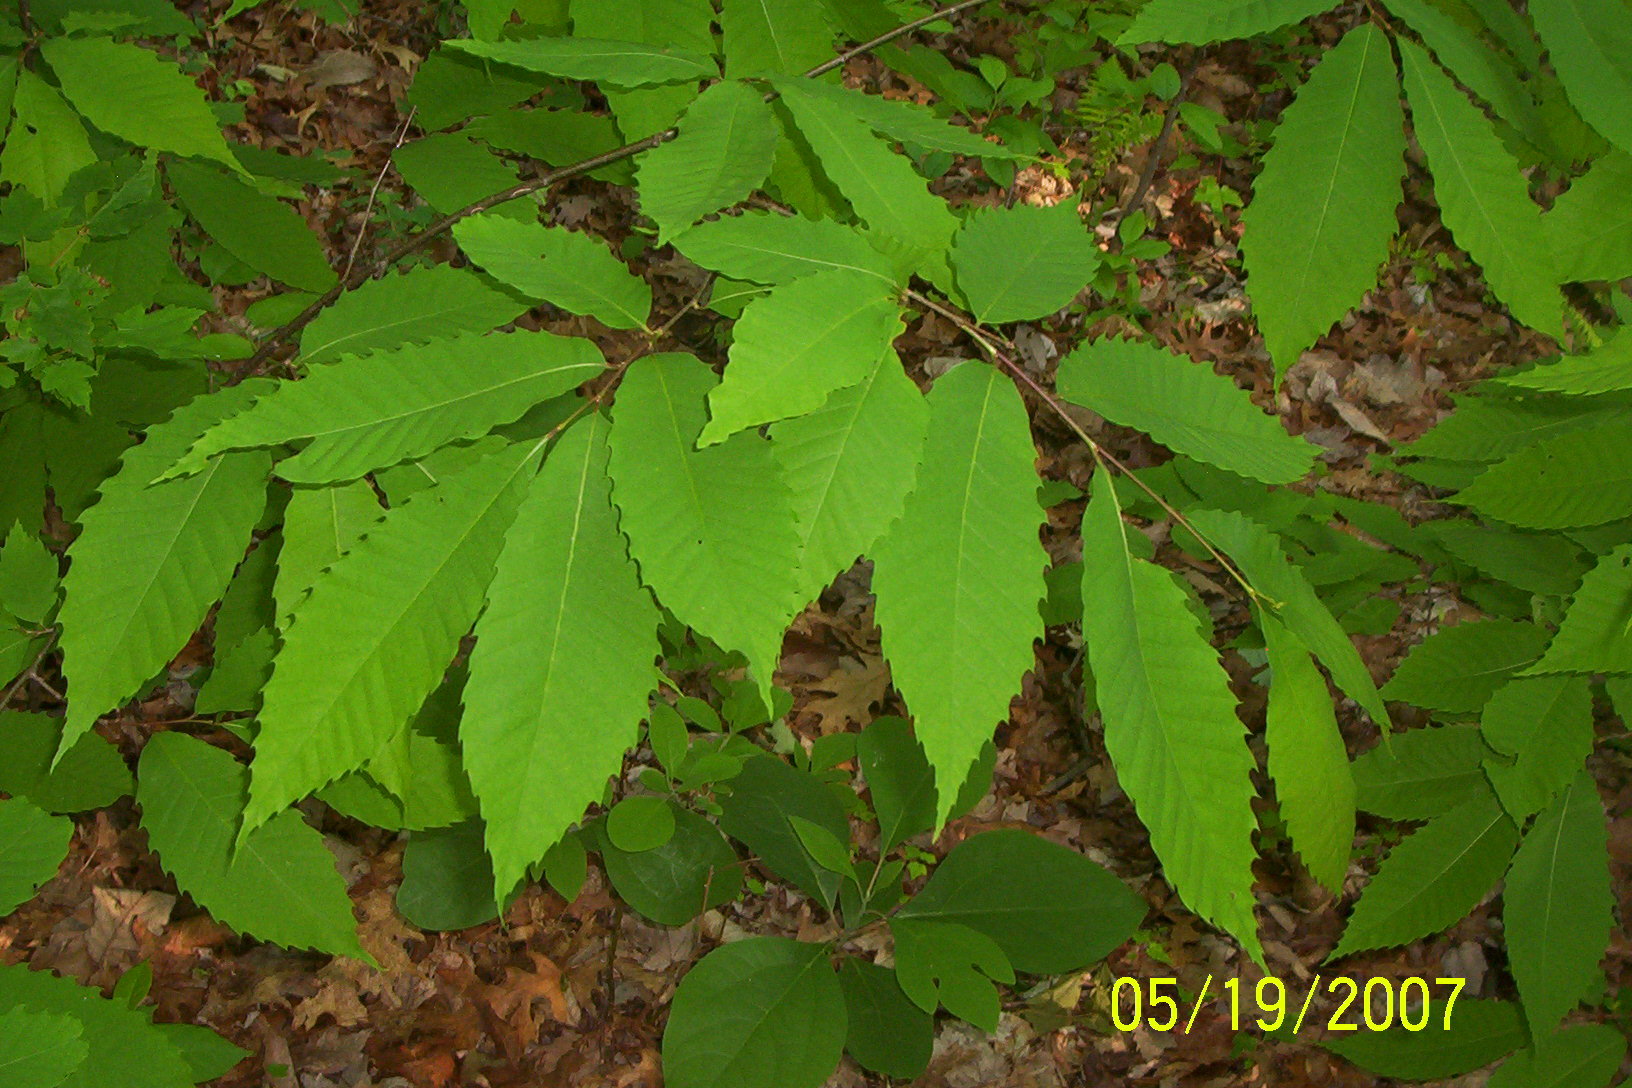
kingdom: Plantae
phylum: Tracheophyta
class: Magnoliopsida
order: Fagales
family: Fagaceae
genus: Castanea
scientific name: Castanea dentata
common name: American chestnut
